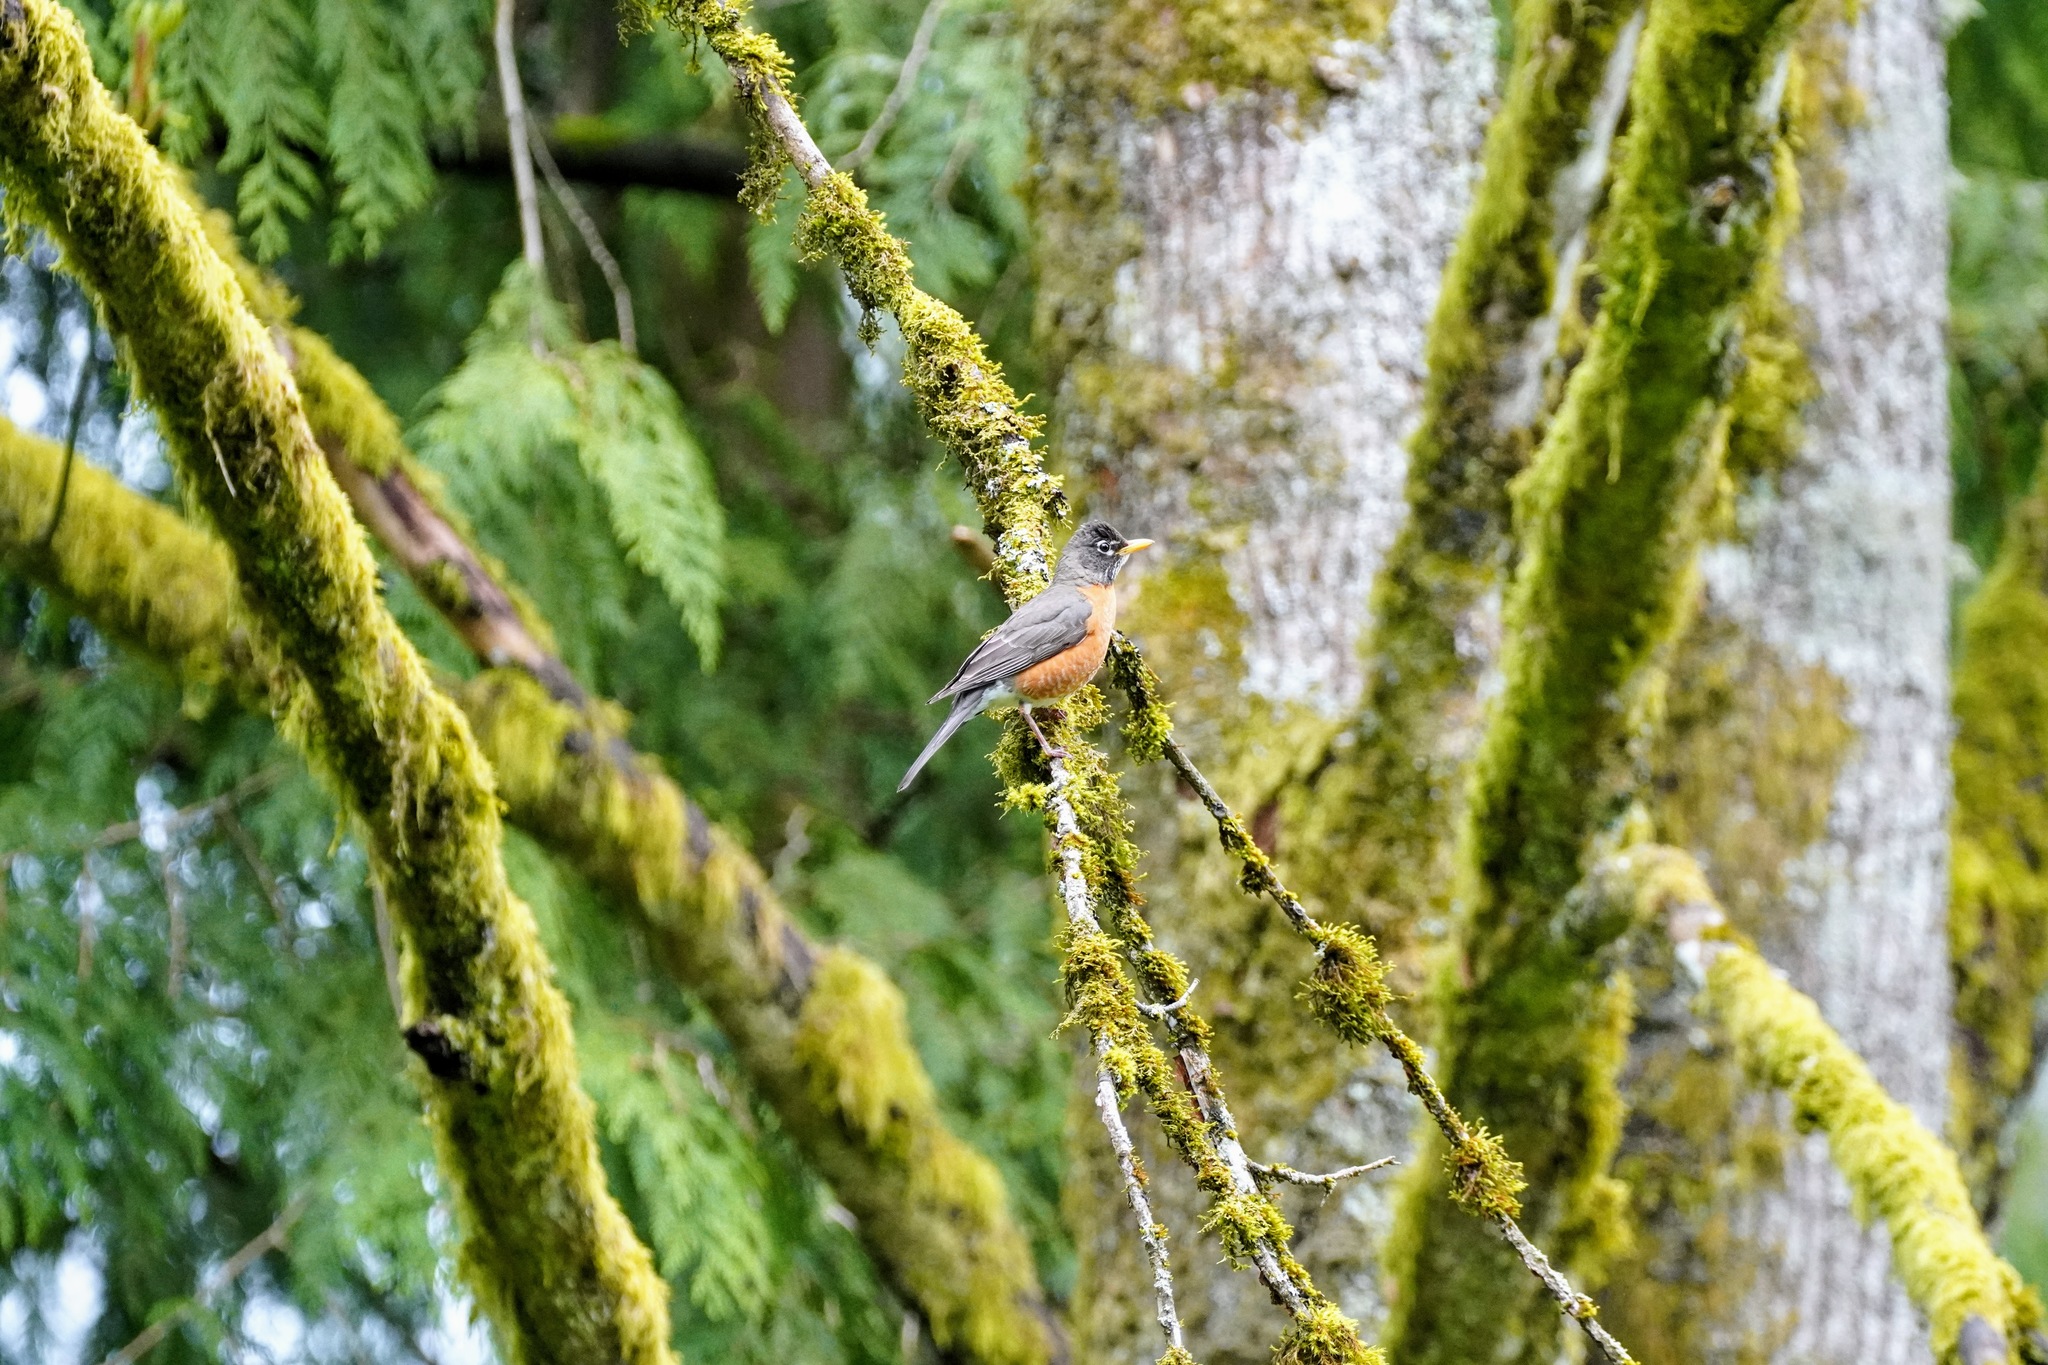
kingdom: Animalia
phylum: Chordata
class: Aves
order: Passeriformes
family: Turdidae
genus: Turdus
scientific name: Turdus migratorius
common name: American robin
